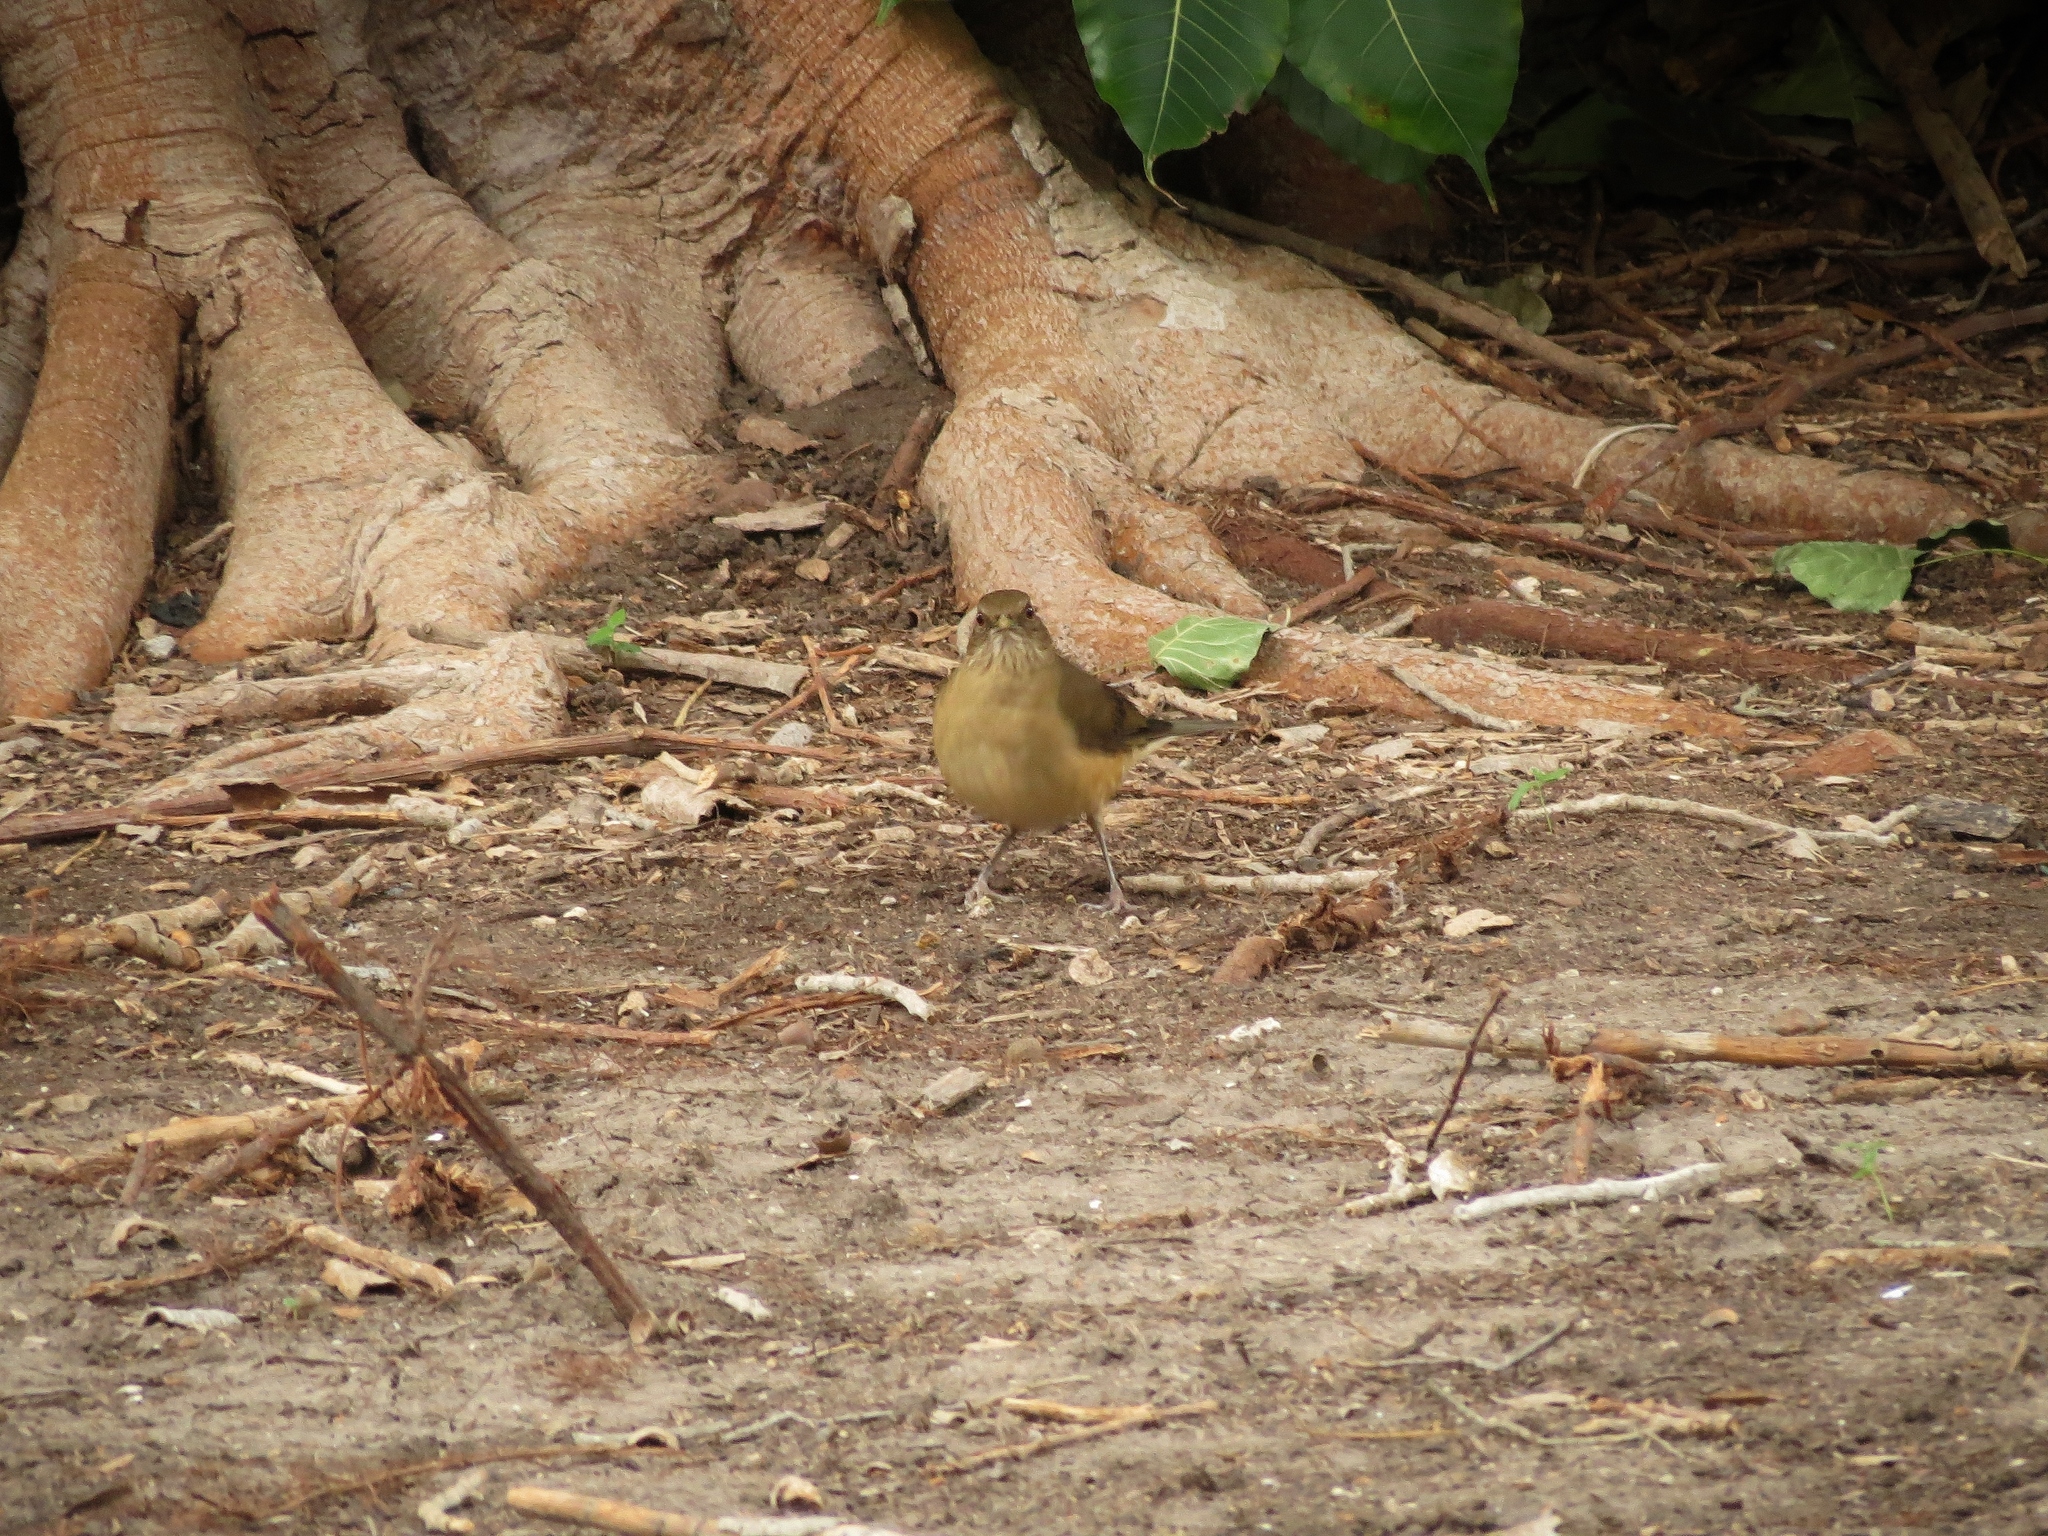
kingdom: Animalia
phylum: Chordata
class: Aves
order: Passeriformes
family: Turdidae
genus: Turdus
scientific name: Turdus grayi
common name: Clay-colored thrush
